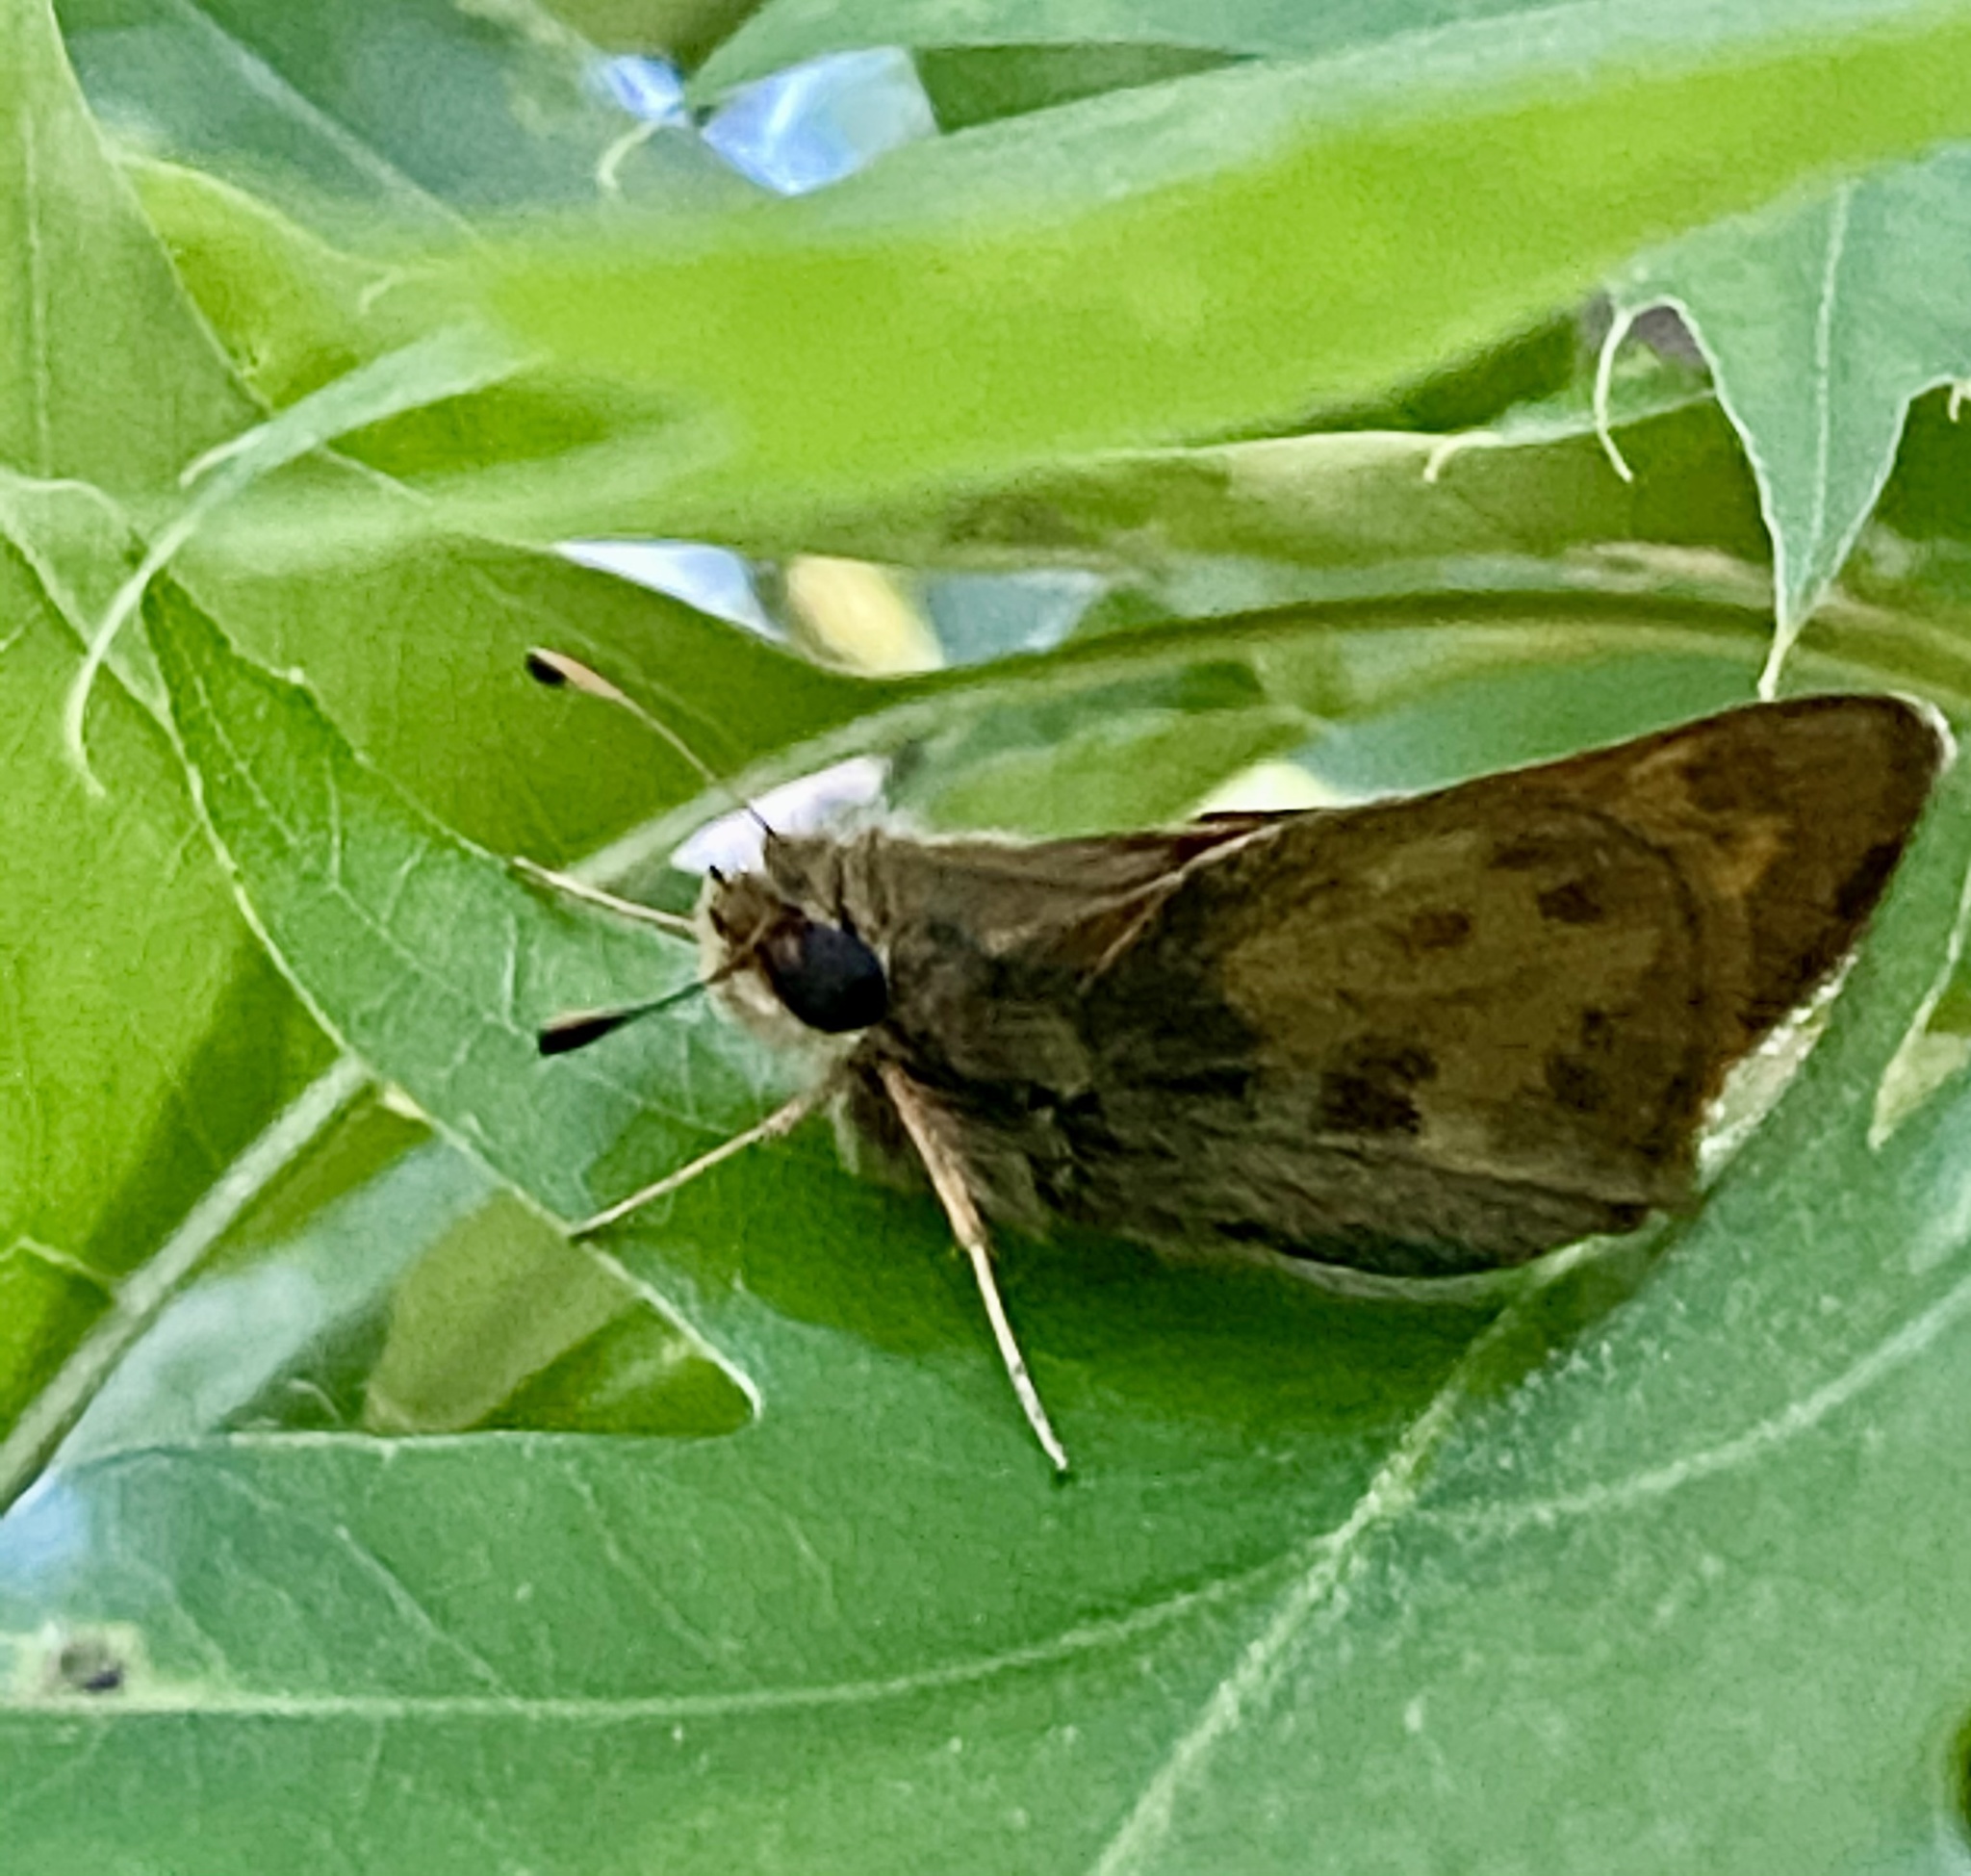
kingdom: Animalia
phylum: Arthropoda
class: Insecta
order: Lepidoptera
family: Hesperiidae
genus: Atalopedes
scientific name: Atalopedes
